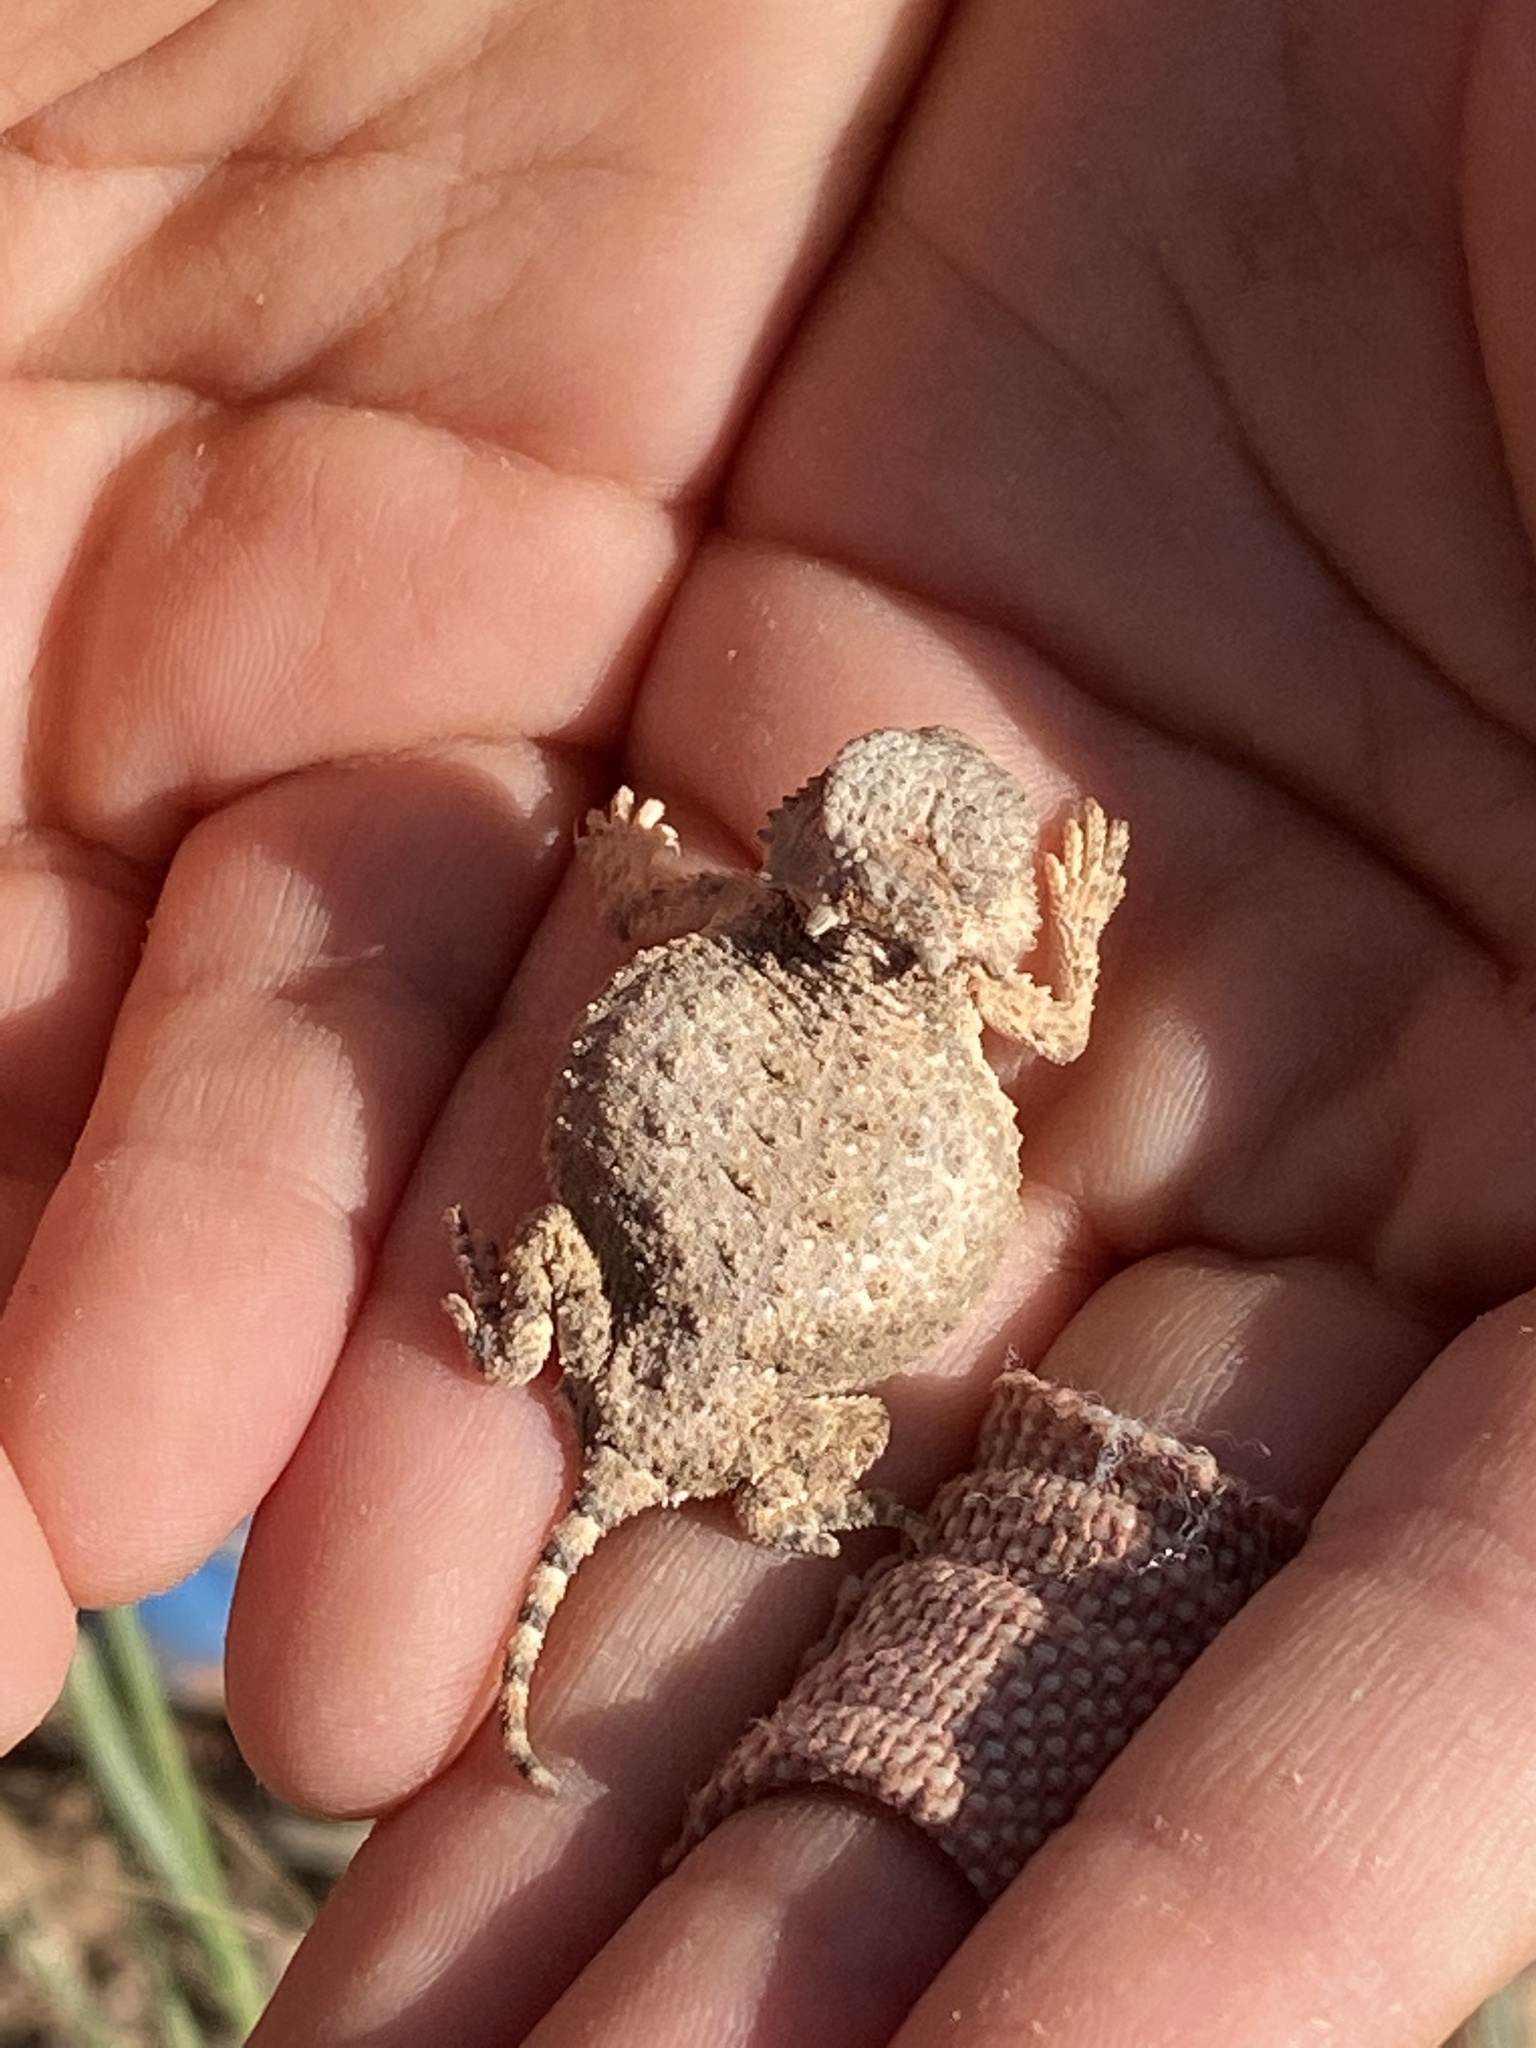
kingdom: Animalia
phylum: Chordata
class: Squamata
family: Phrynosomatidae
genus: Phrynosoma
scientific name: Phrynosoma modestum
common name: Roundtail horned lizard
